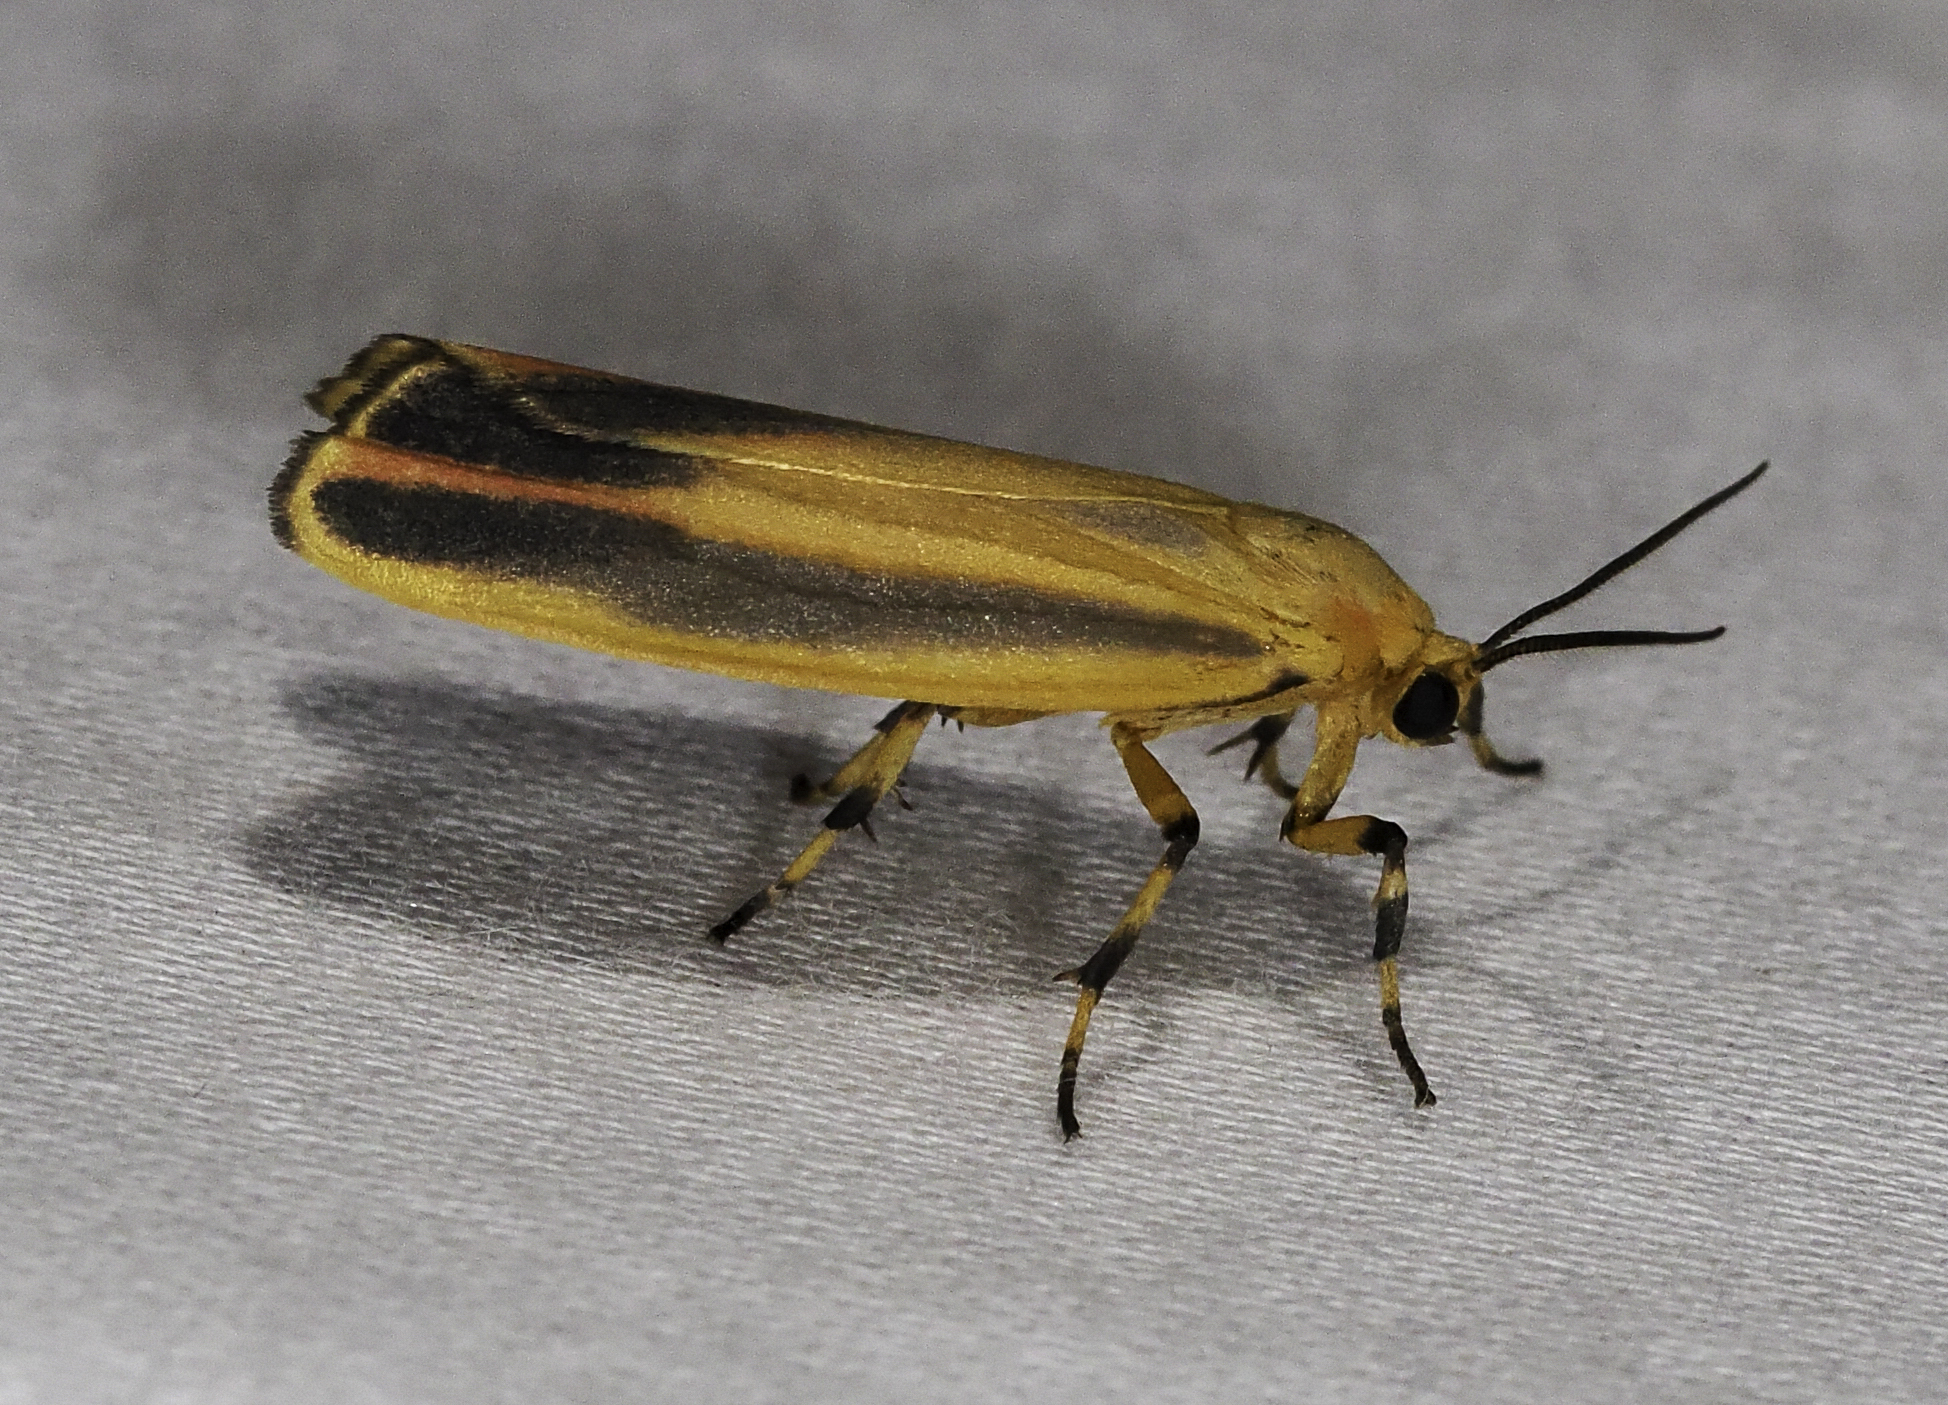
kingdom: Animalia
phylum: Arthropoda
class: Insecta
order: Lepidoptera
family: Erebidae
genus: Hypoprepia
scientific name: Hypoprepia fucosa
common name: Painted lichen moth
